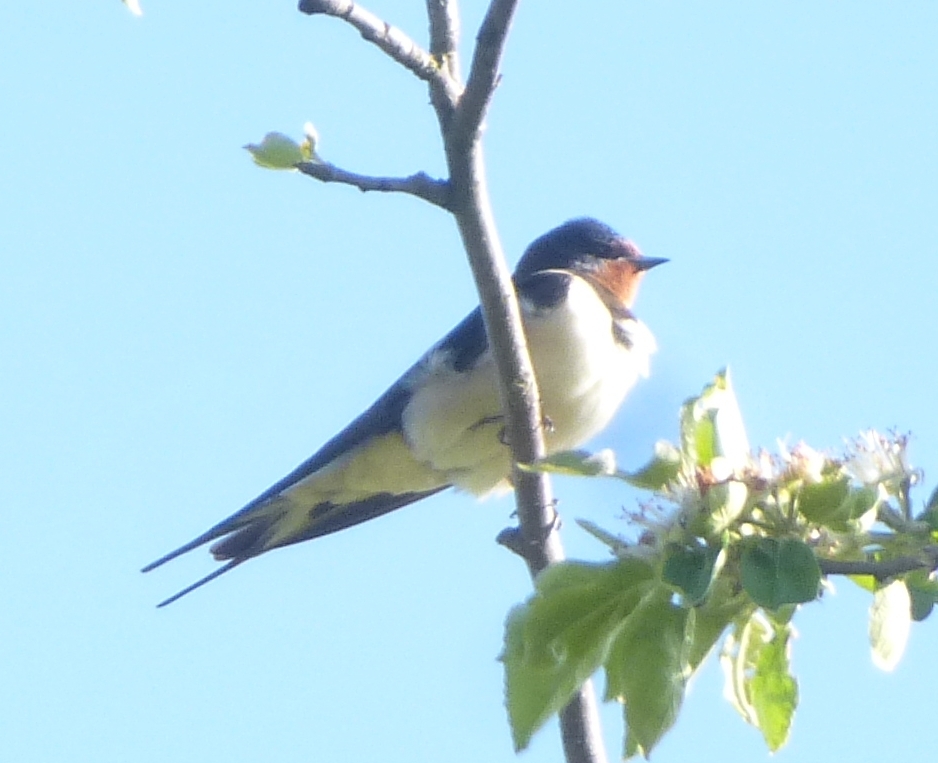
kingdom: Animalia
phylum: Chordata
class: Aves
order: Passeriformes
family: Hirundinidae
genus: Hirundo
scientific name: Hirundo rustica
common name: Barn swallow
